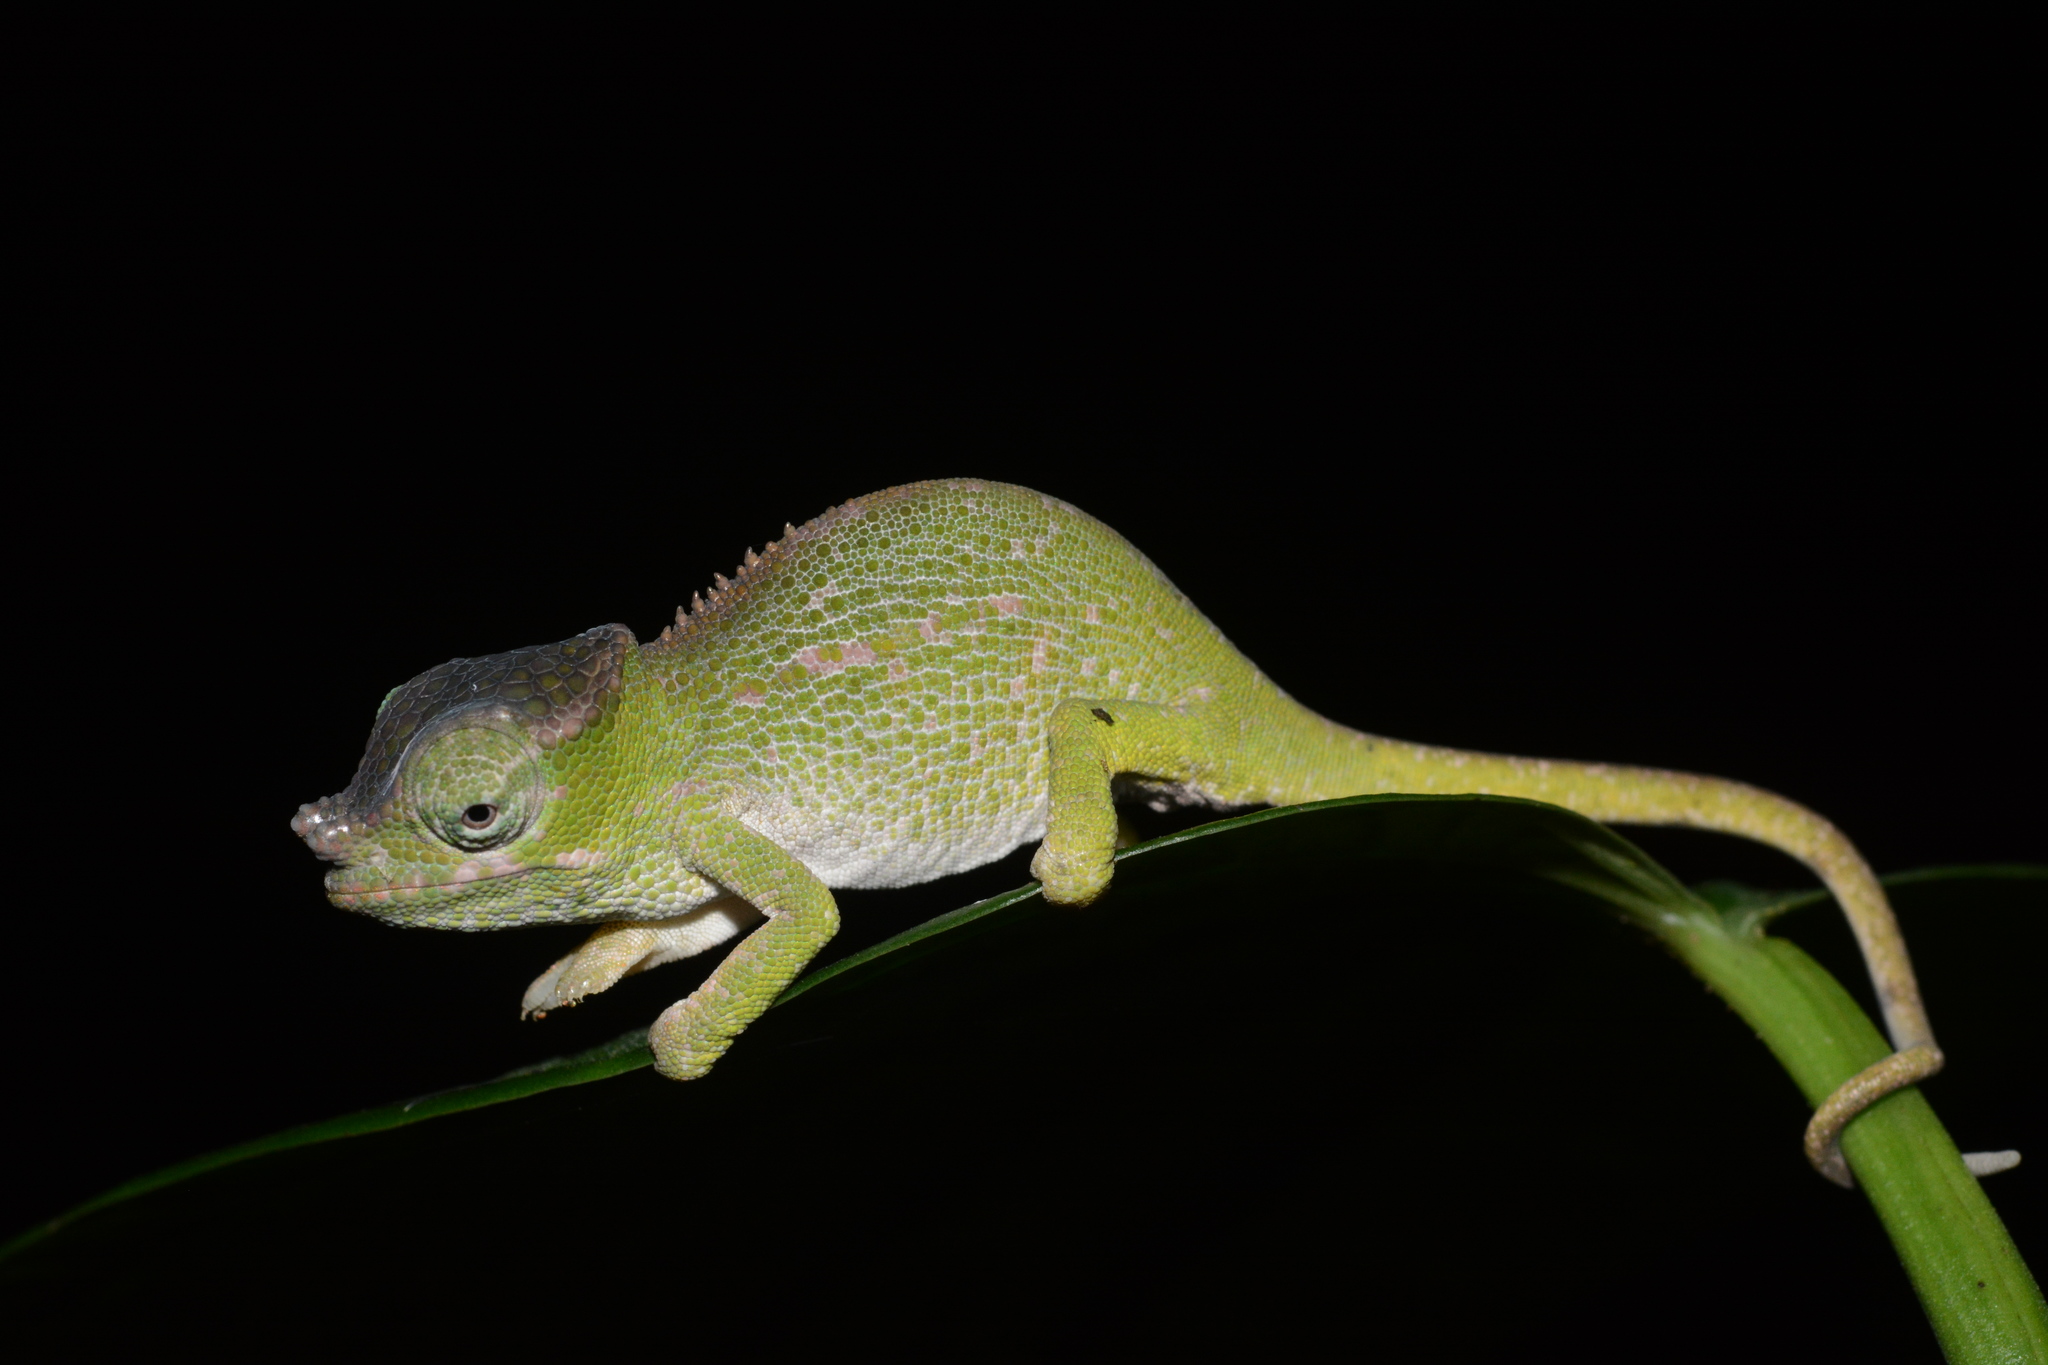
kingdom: Animalia
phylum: Chordata
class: Squamata
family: Chamaeleonidae
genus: Kinyongia
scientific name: Kinyongia uluguruensis
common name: Uluguru two-horned chameleon
